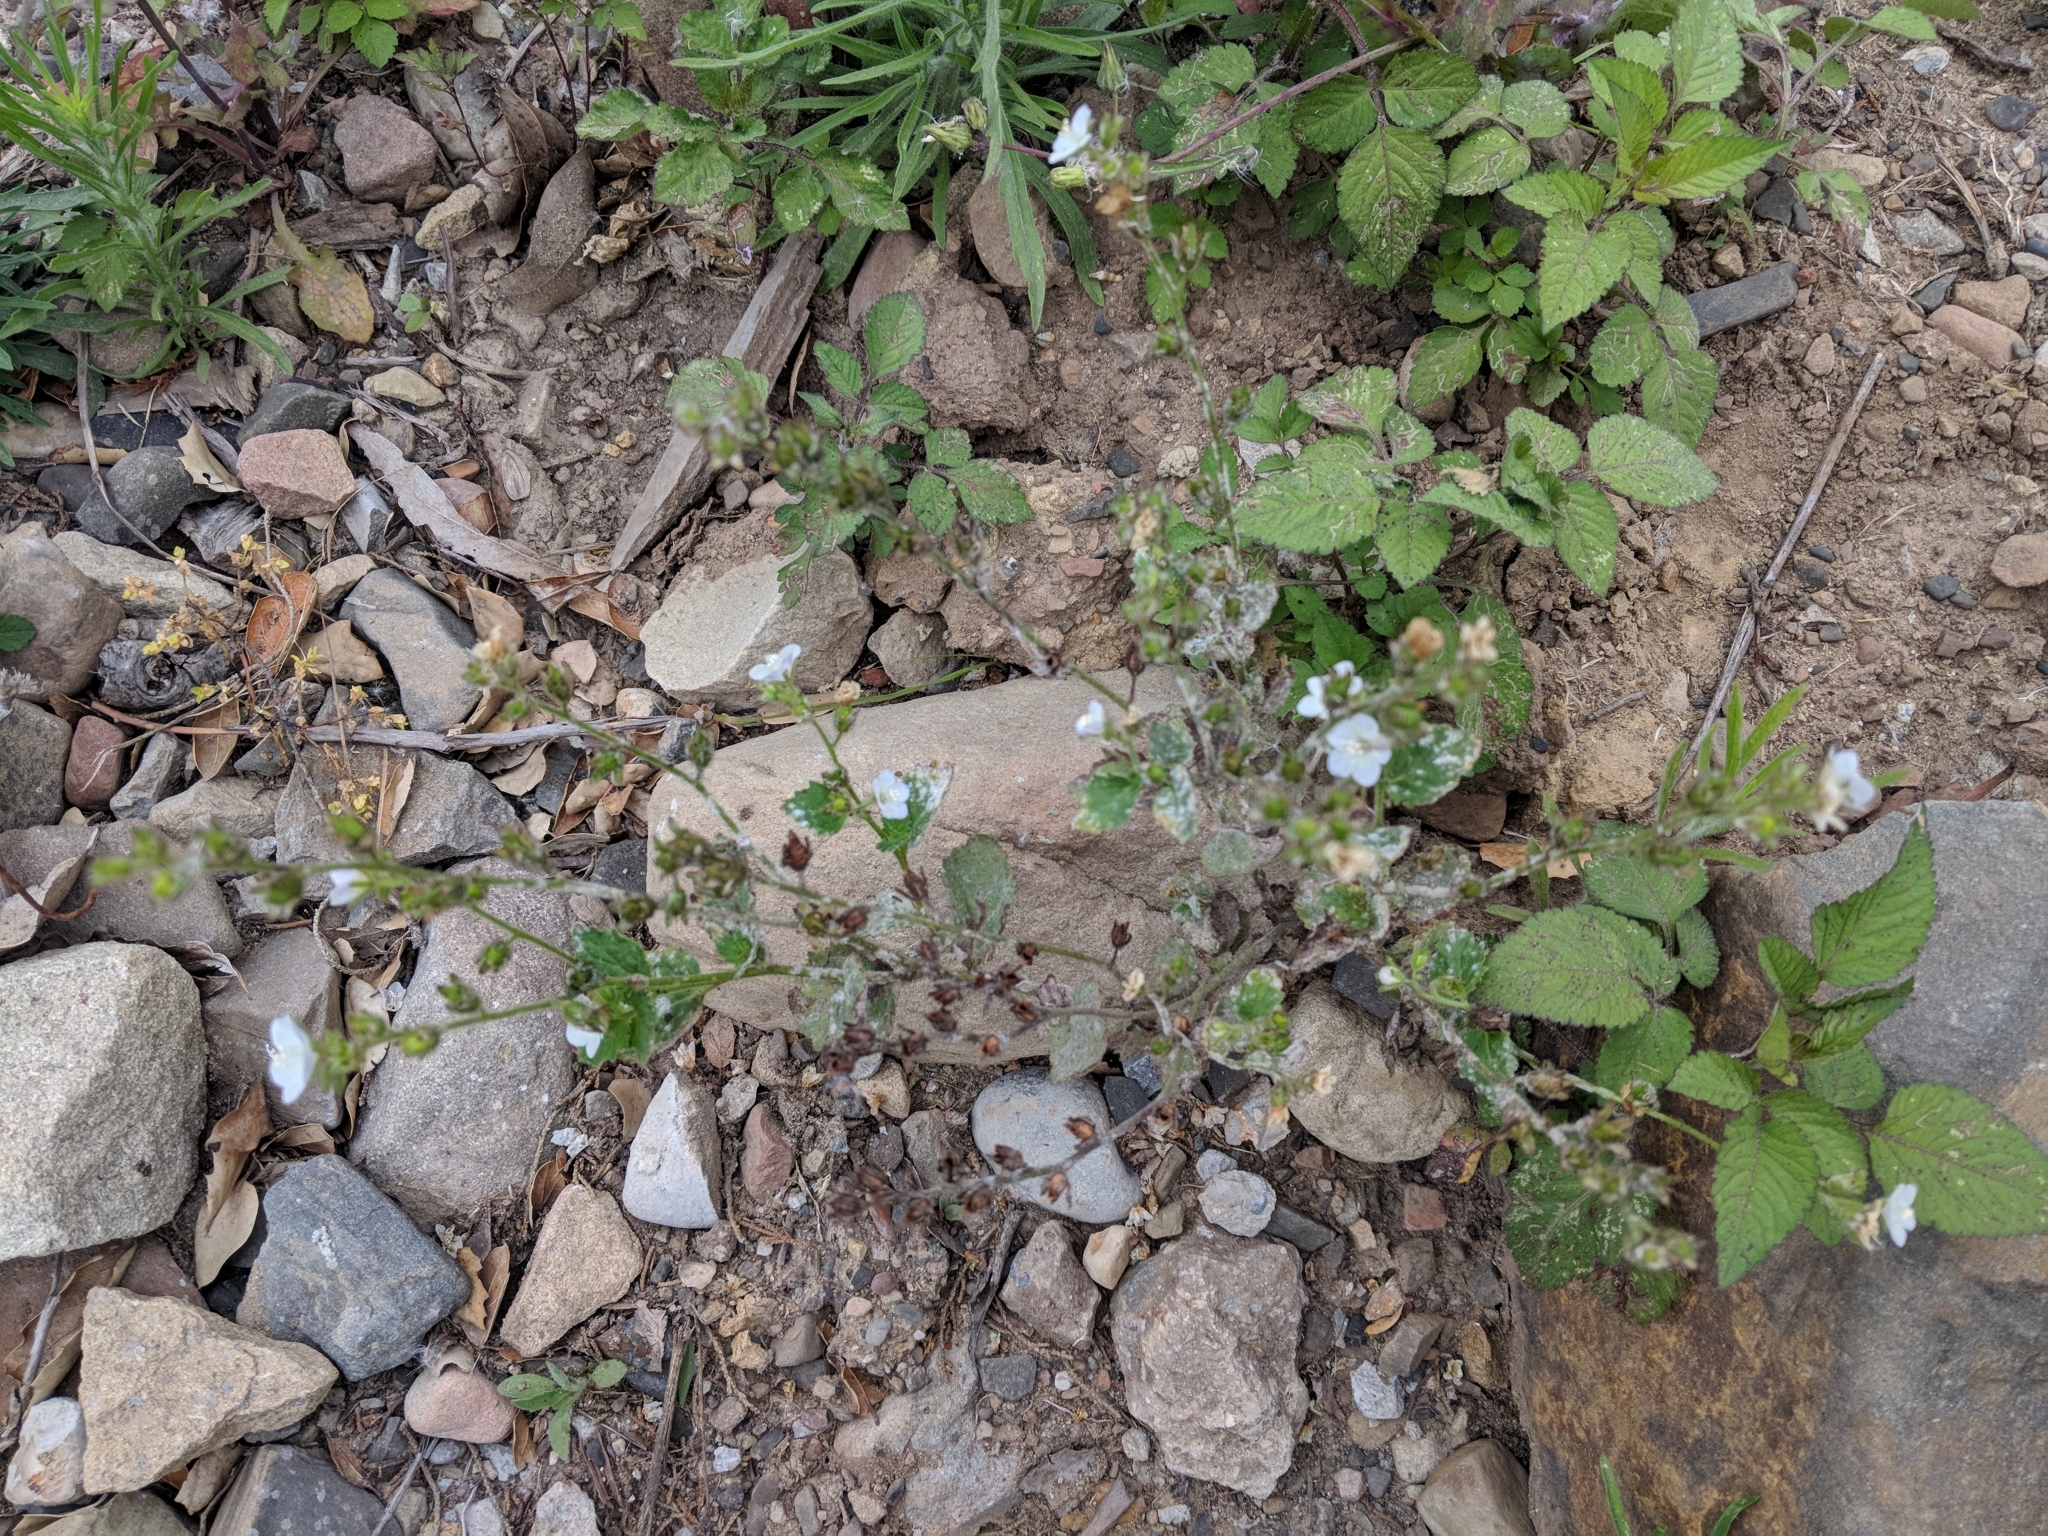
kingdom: Plantae
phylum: Tracheophyta
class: Magnoliopsida
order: Boraginales
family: Hydrophyllaceae
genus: Phacelia
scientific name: Phacelia viscida
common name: Sticky phacelia
